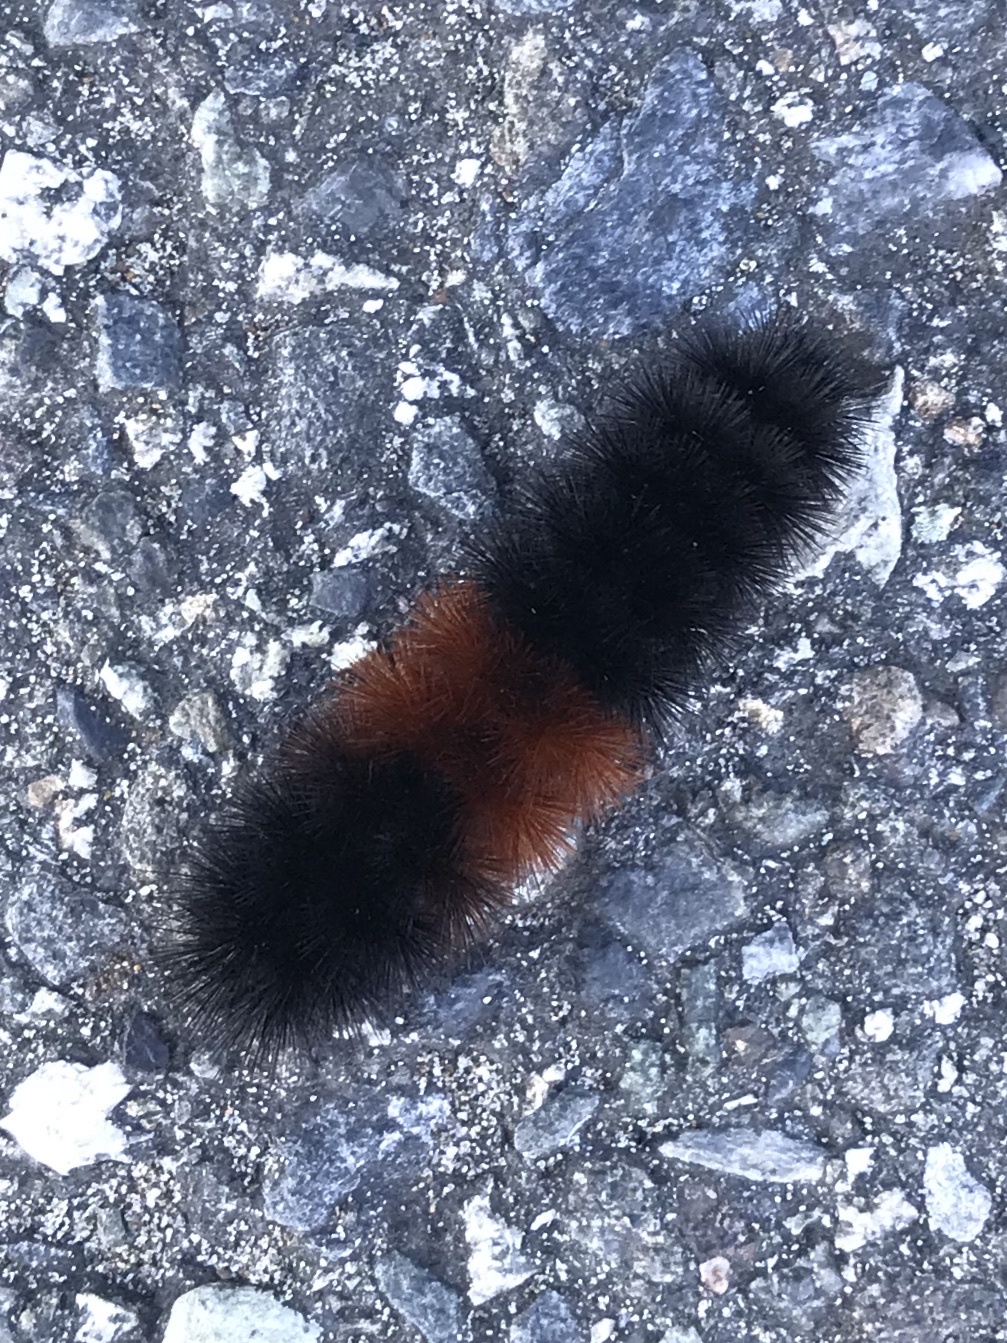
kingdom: Animalia
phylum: Arthropoda
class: Insecta
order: Lepidoptera
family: Erebidae
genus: Pyrrharctia
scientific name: Pyrrharctia isabella
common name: Isabella tiger moth
